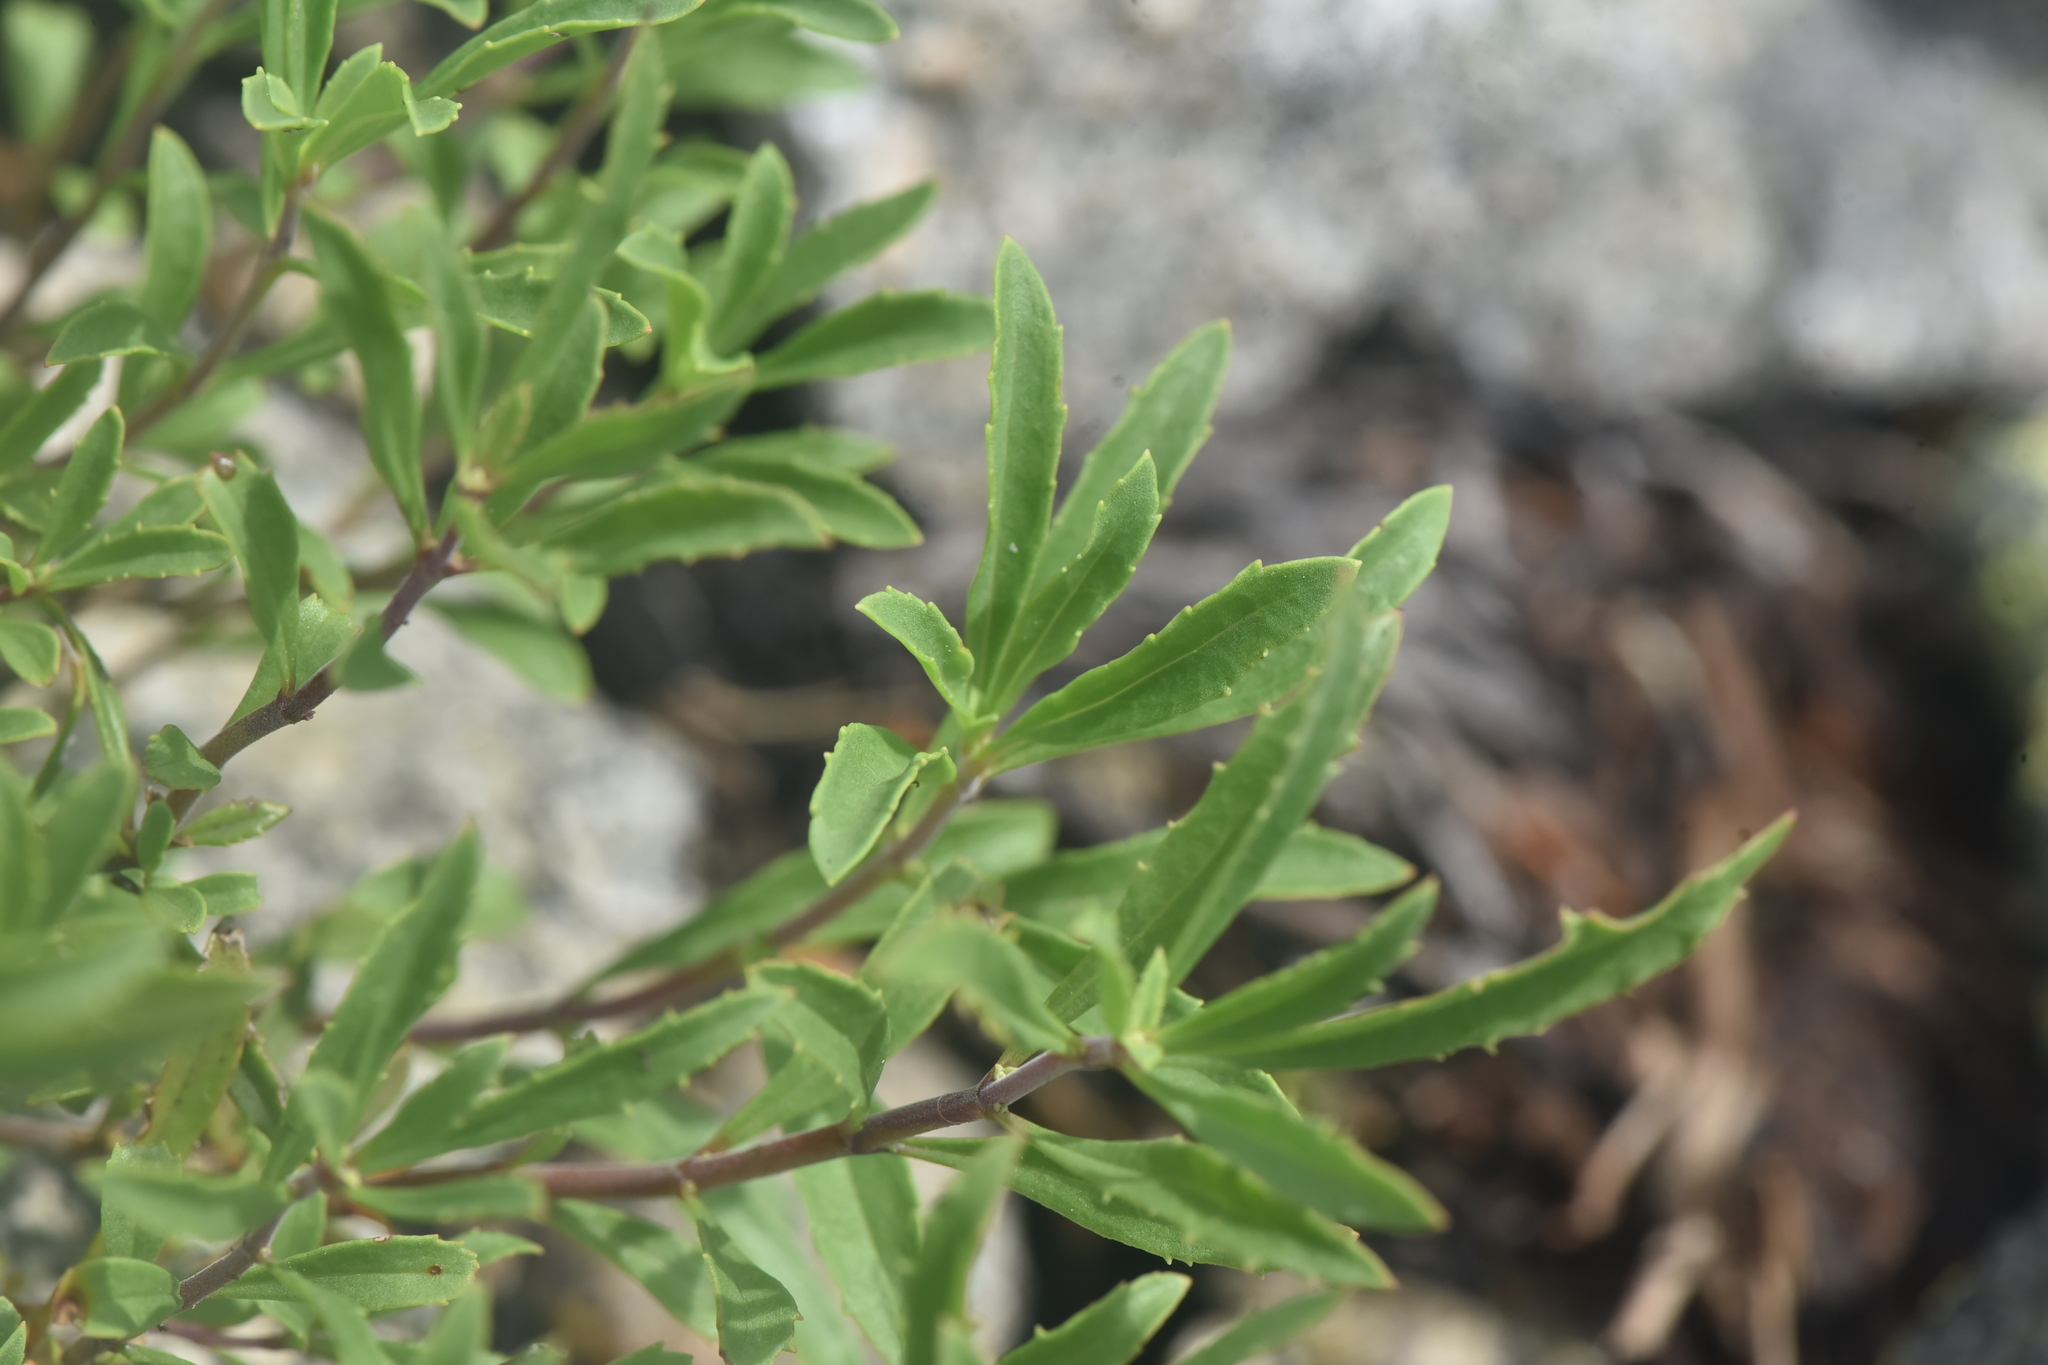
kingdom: Plantae
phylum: Tracheophyta
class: Magnoliopsida
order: Lamiales
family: Plantaginaceae
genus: Penstemon
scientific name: Penstemon fruticosus
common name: Bush penstemon
